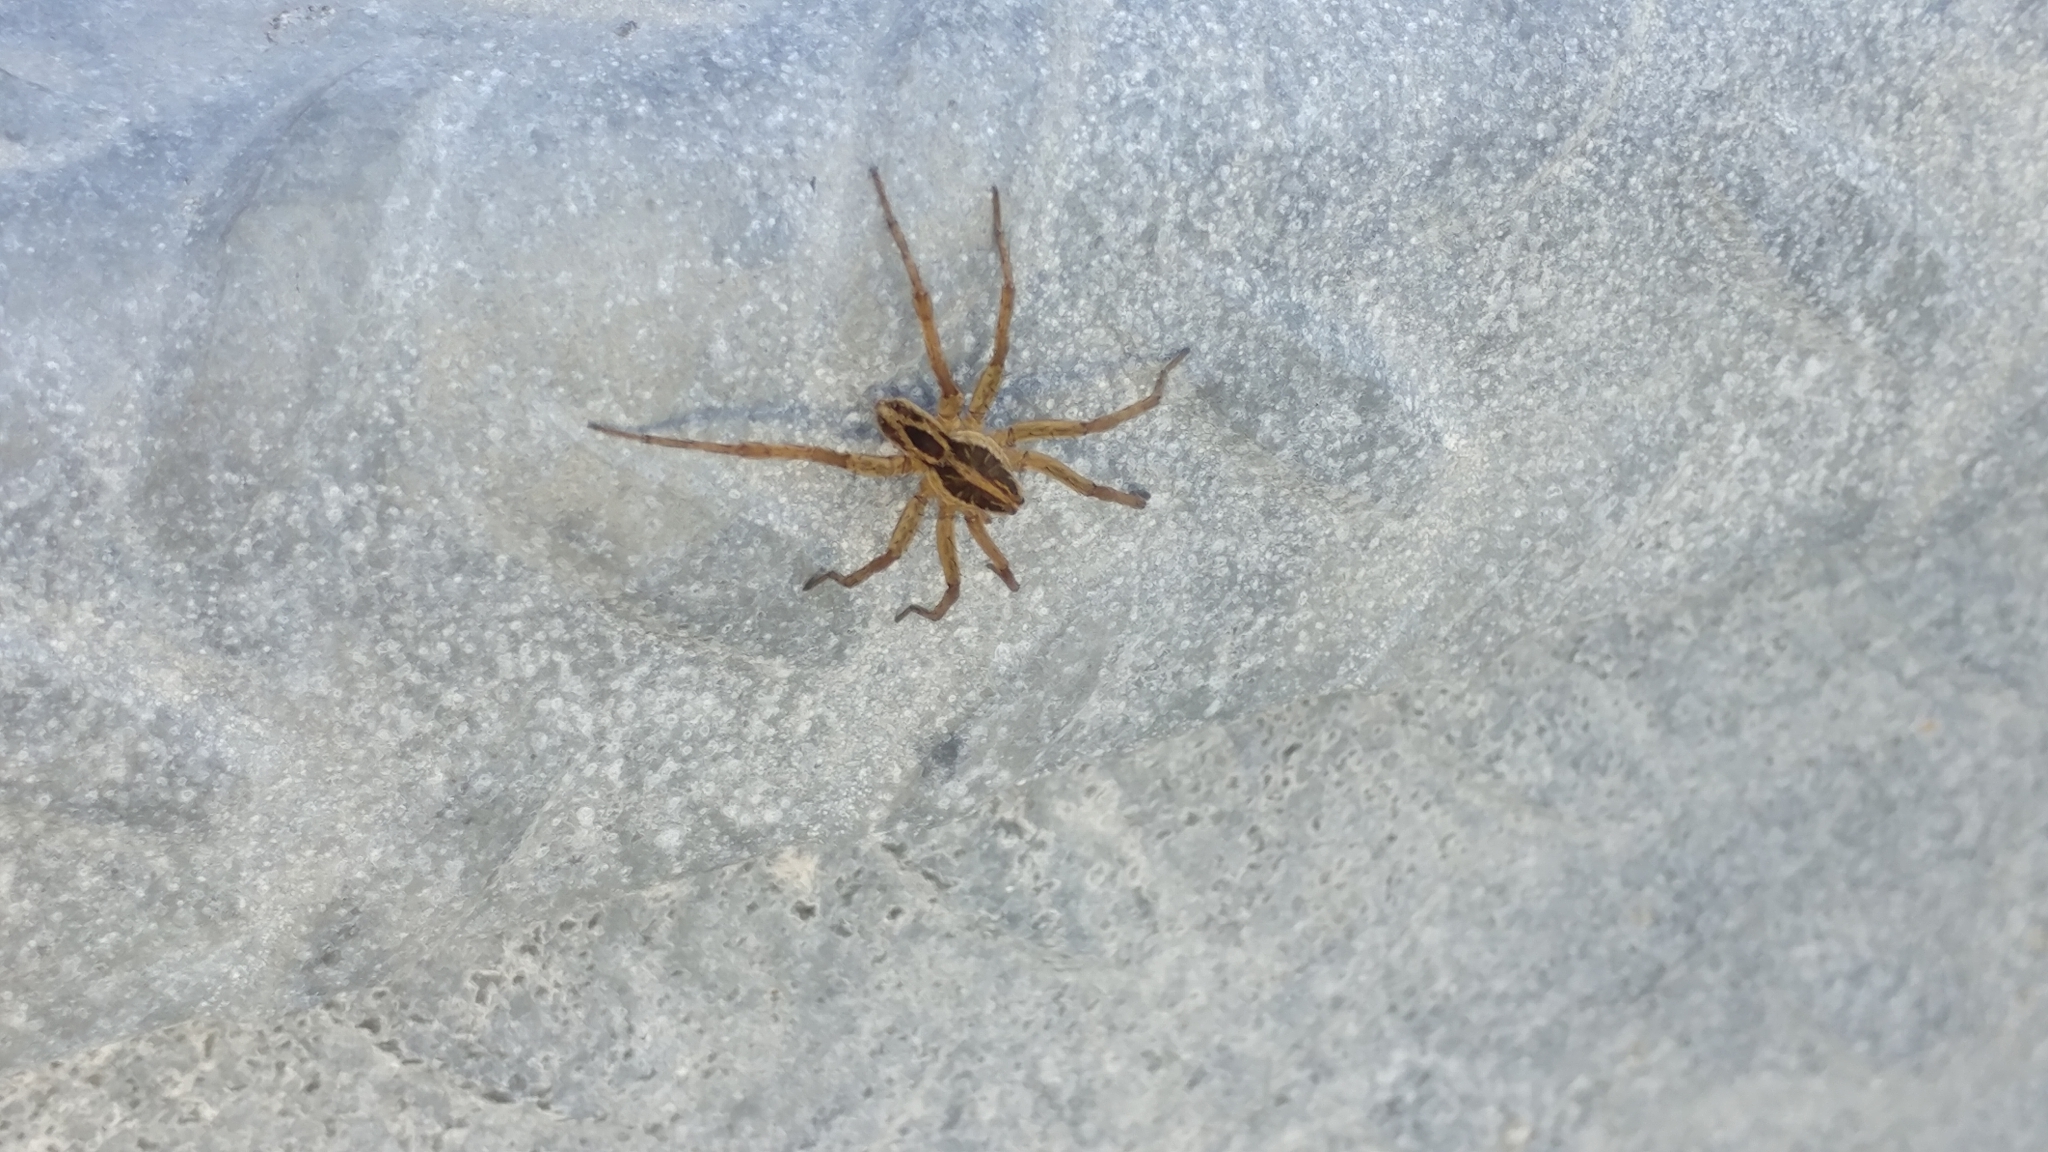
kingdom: Animalia
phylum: Arthropoda
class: Arachnida
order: Araneae
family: Lycosidae
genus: Tigrosa
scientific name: Tigrosa annexa
